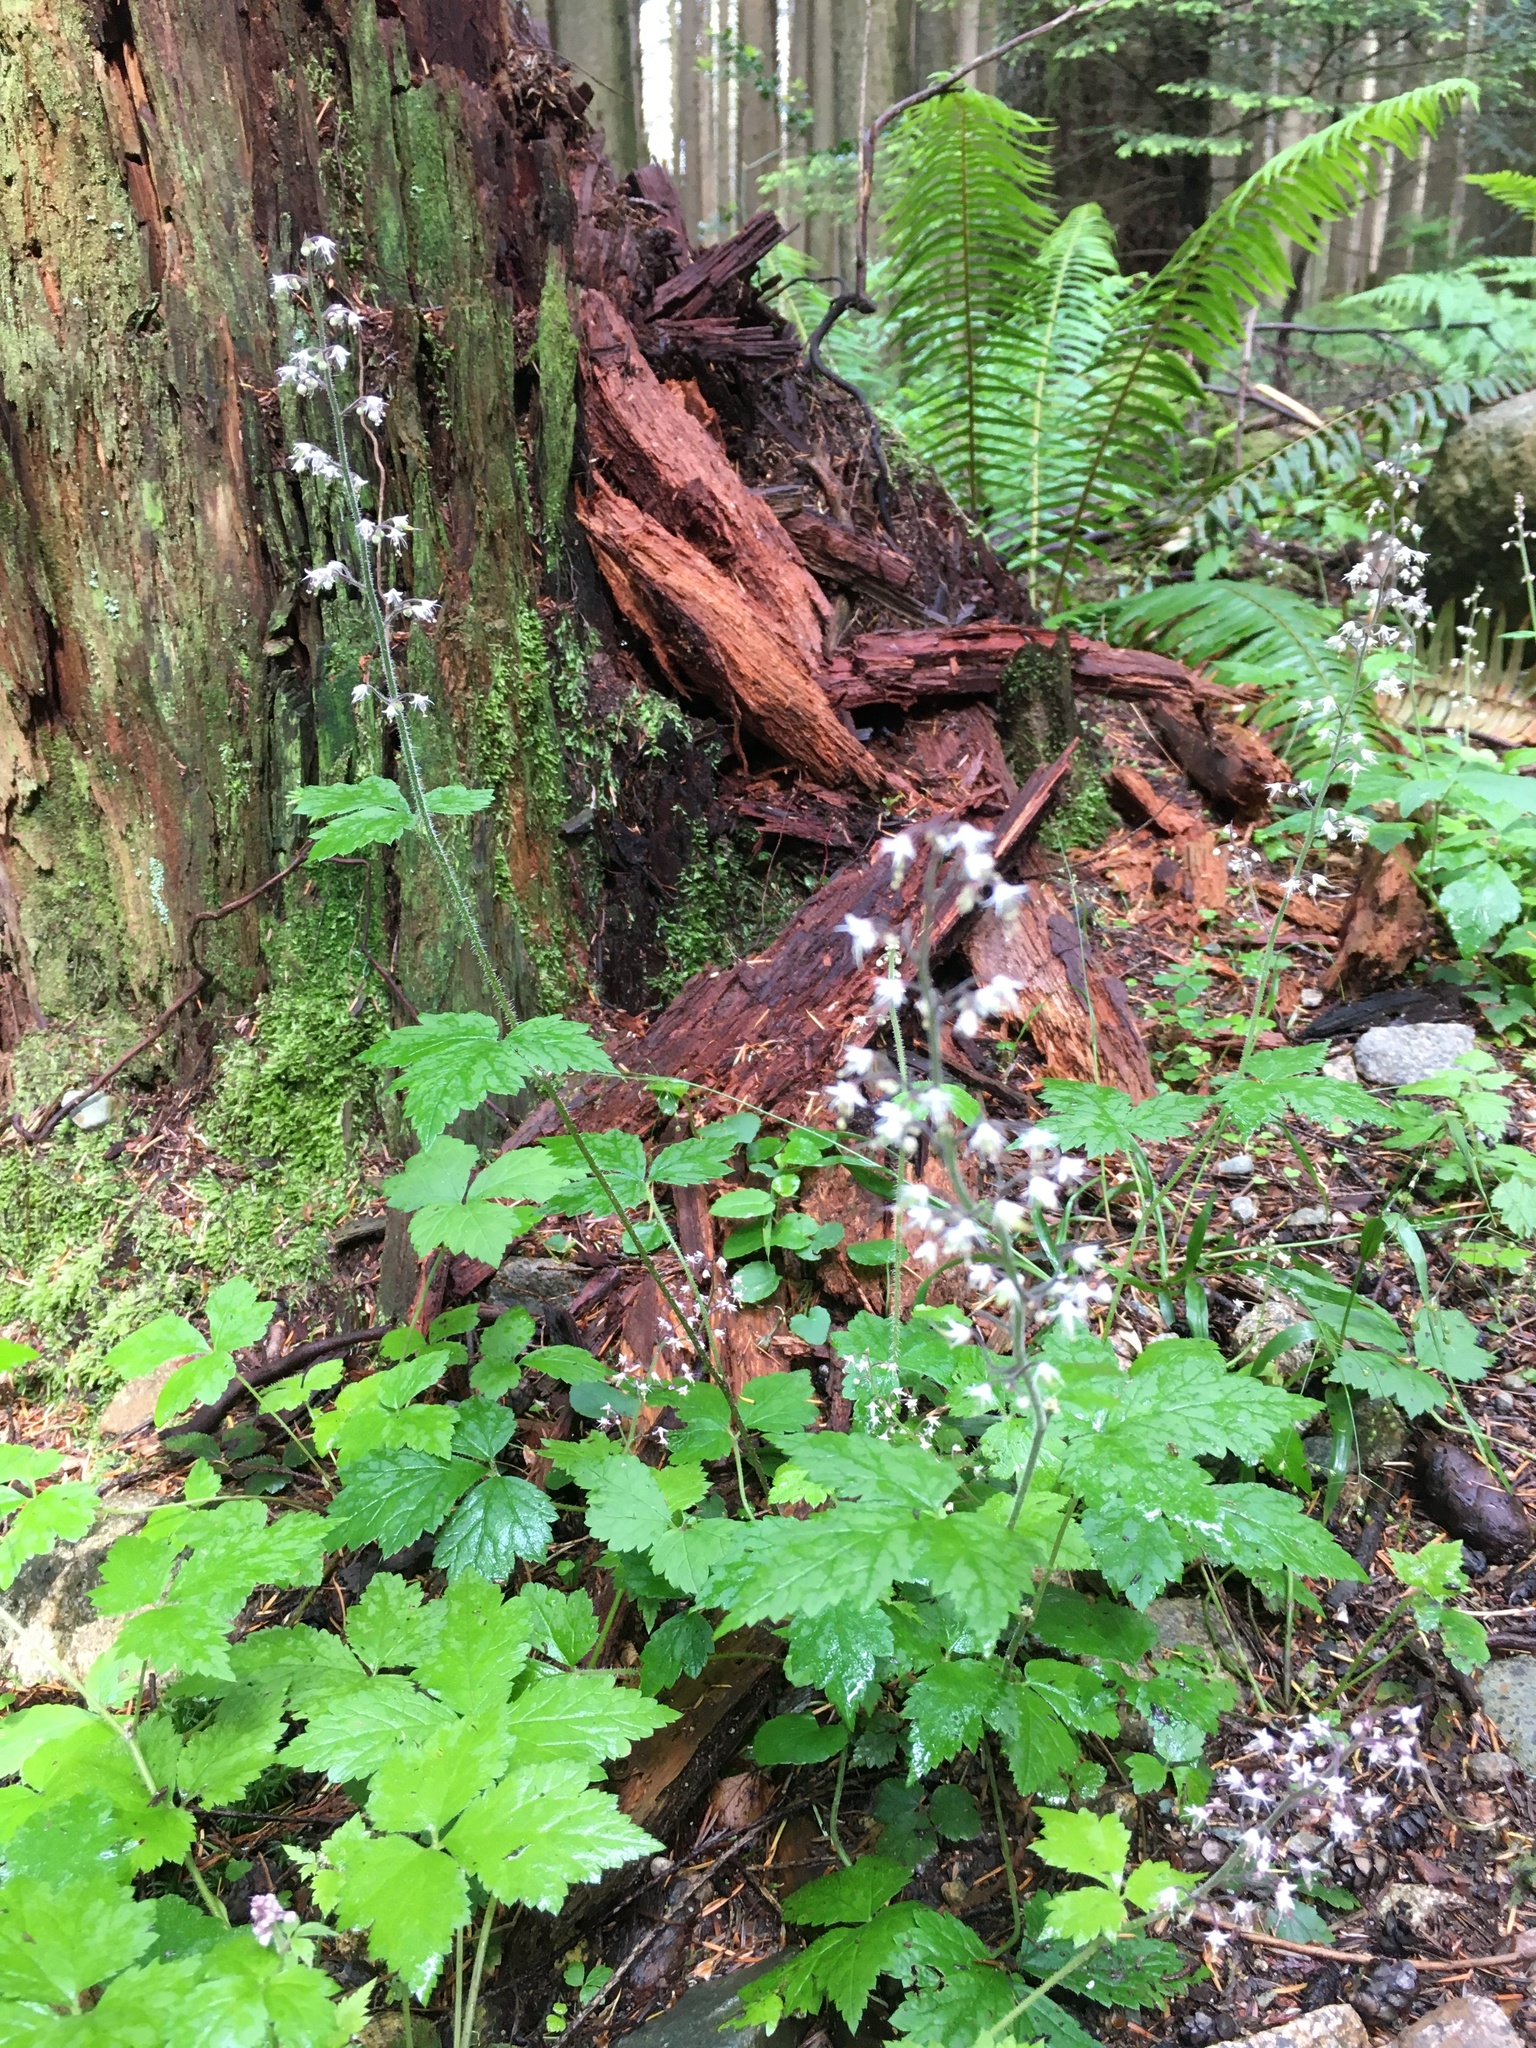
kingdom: Plantae
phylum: Tracheophyta
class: Magnoliopsida
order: Saxifragales
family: Saxifragaceae
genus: Tiarella
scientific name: Tiarella trifoliata
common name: Sugar-scoop
